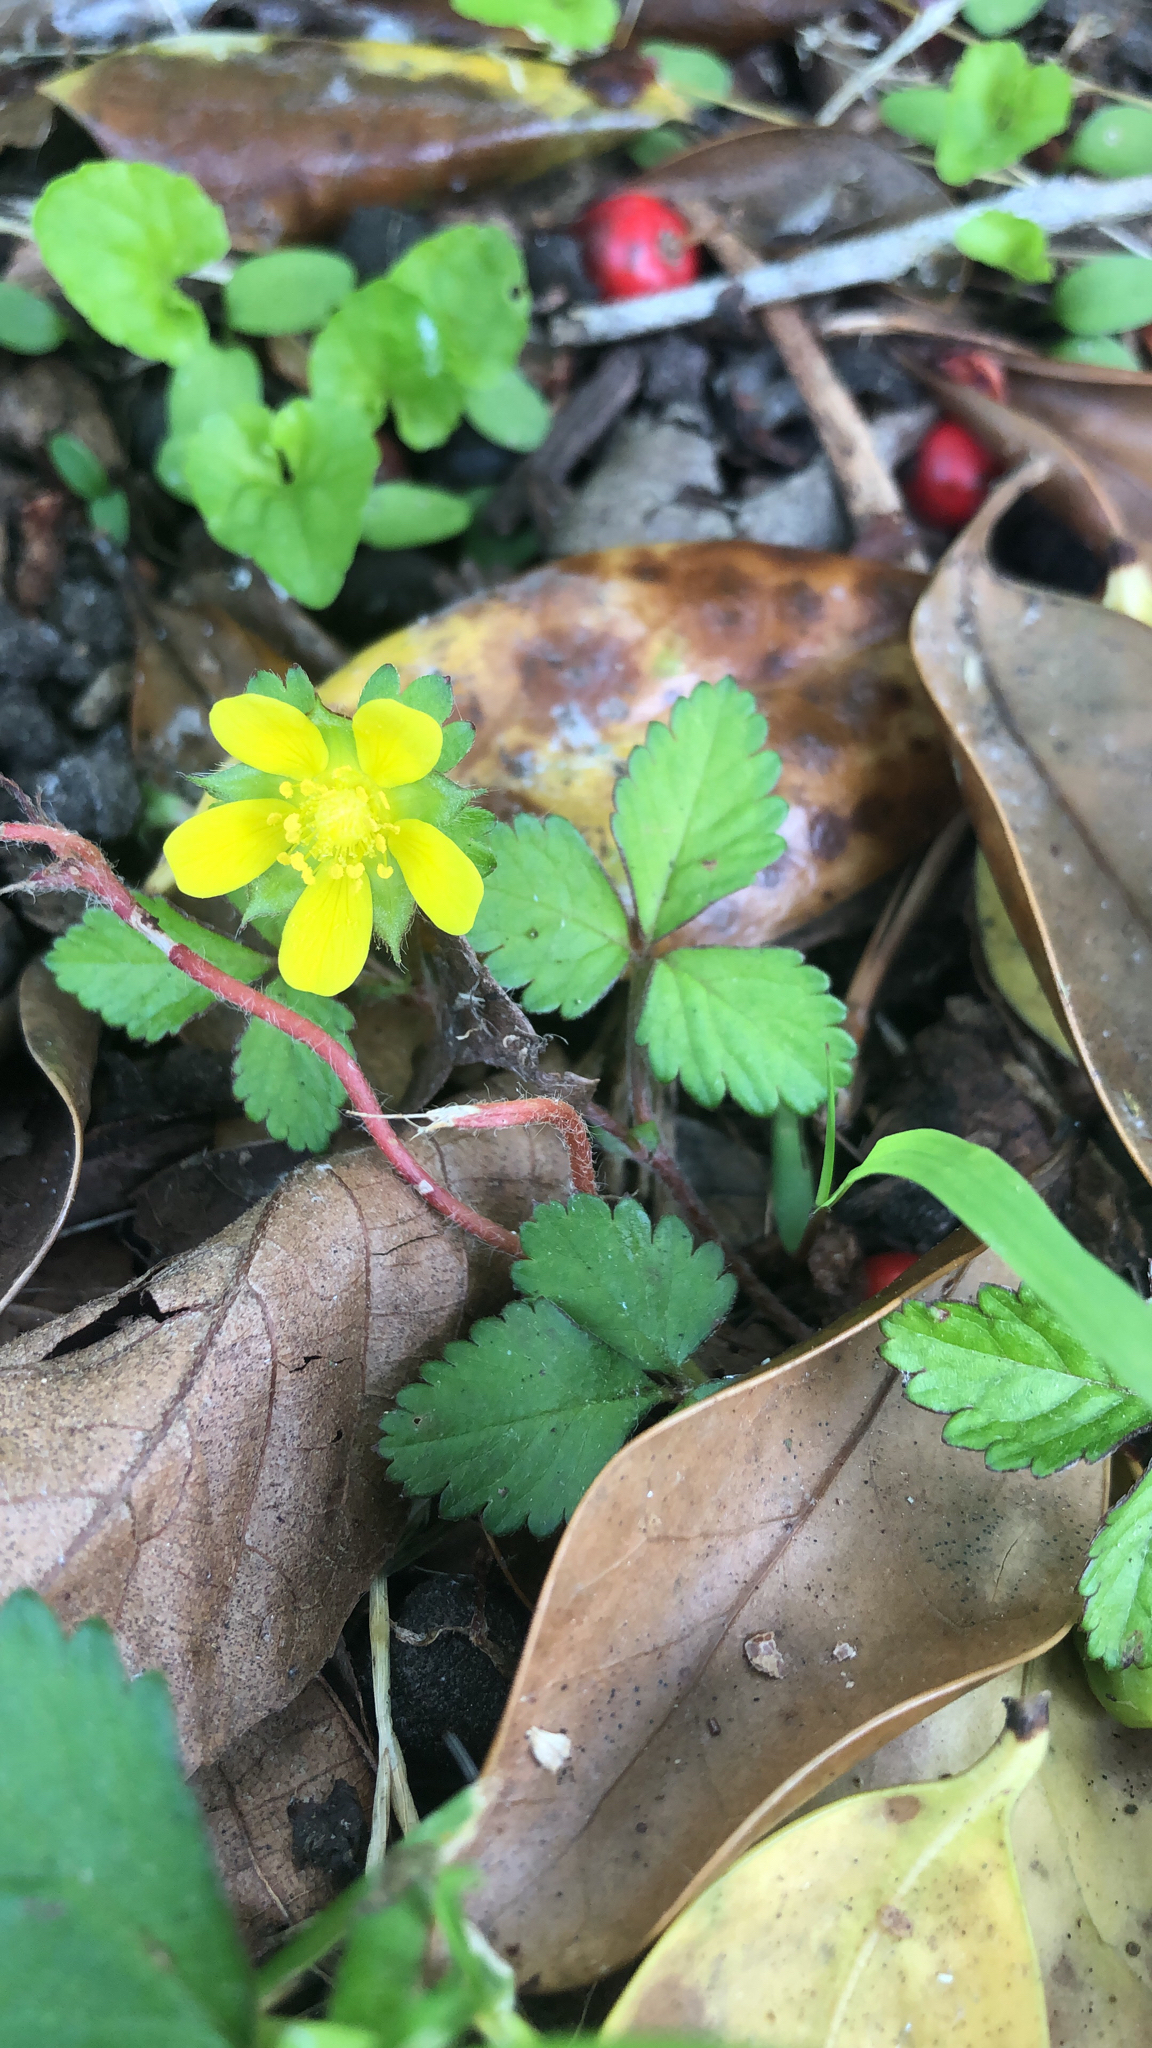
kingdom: Plantae
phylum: Tracheophyta
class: Magnoliopsida
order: Rosales
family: Rosaceae
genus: Potentilla
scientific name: Potentilla indica
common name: Yellow-flowered strawberry
